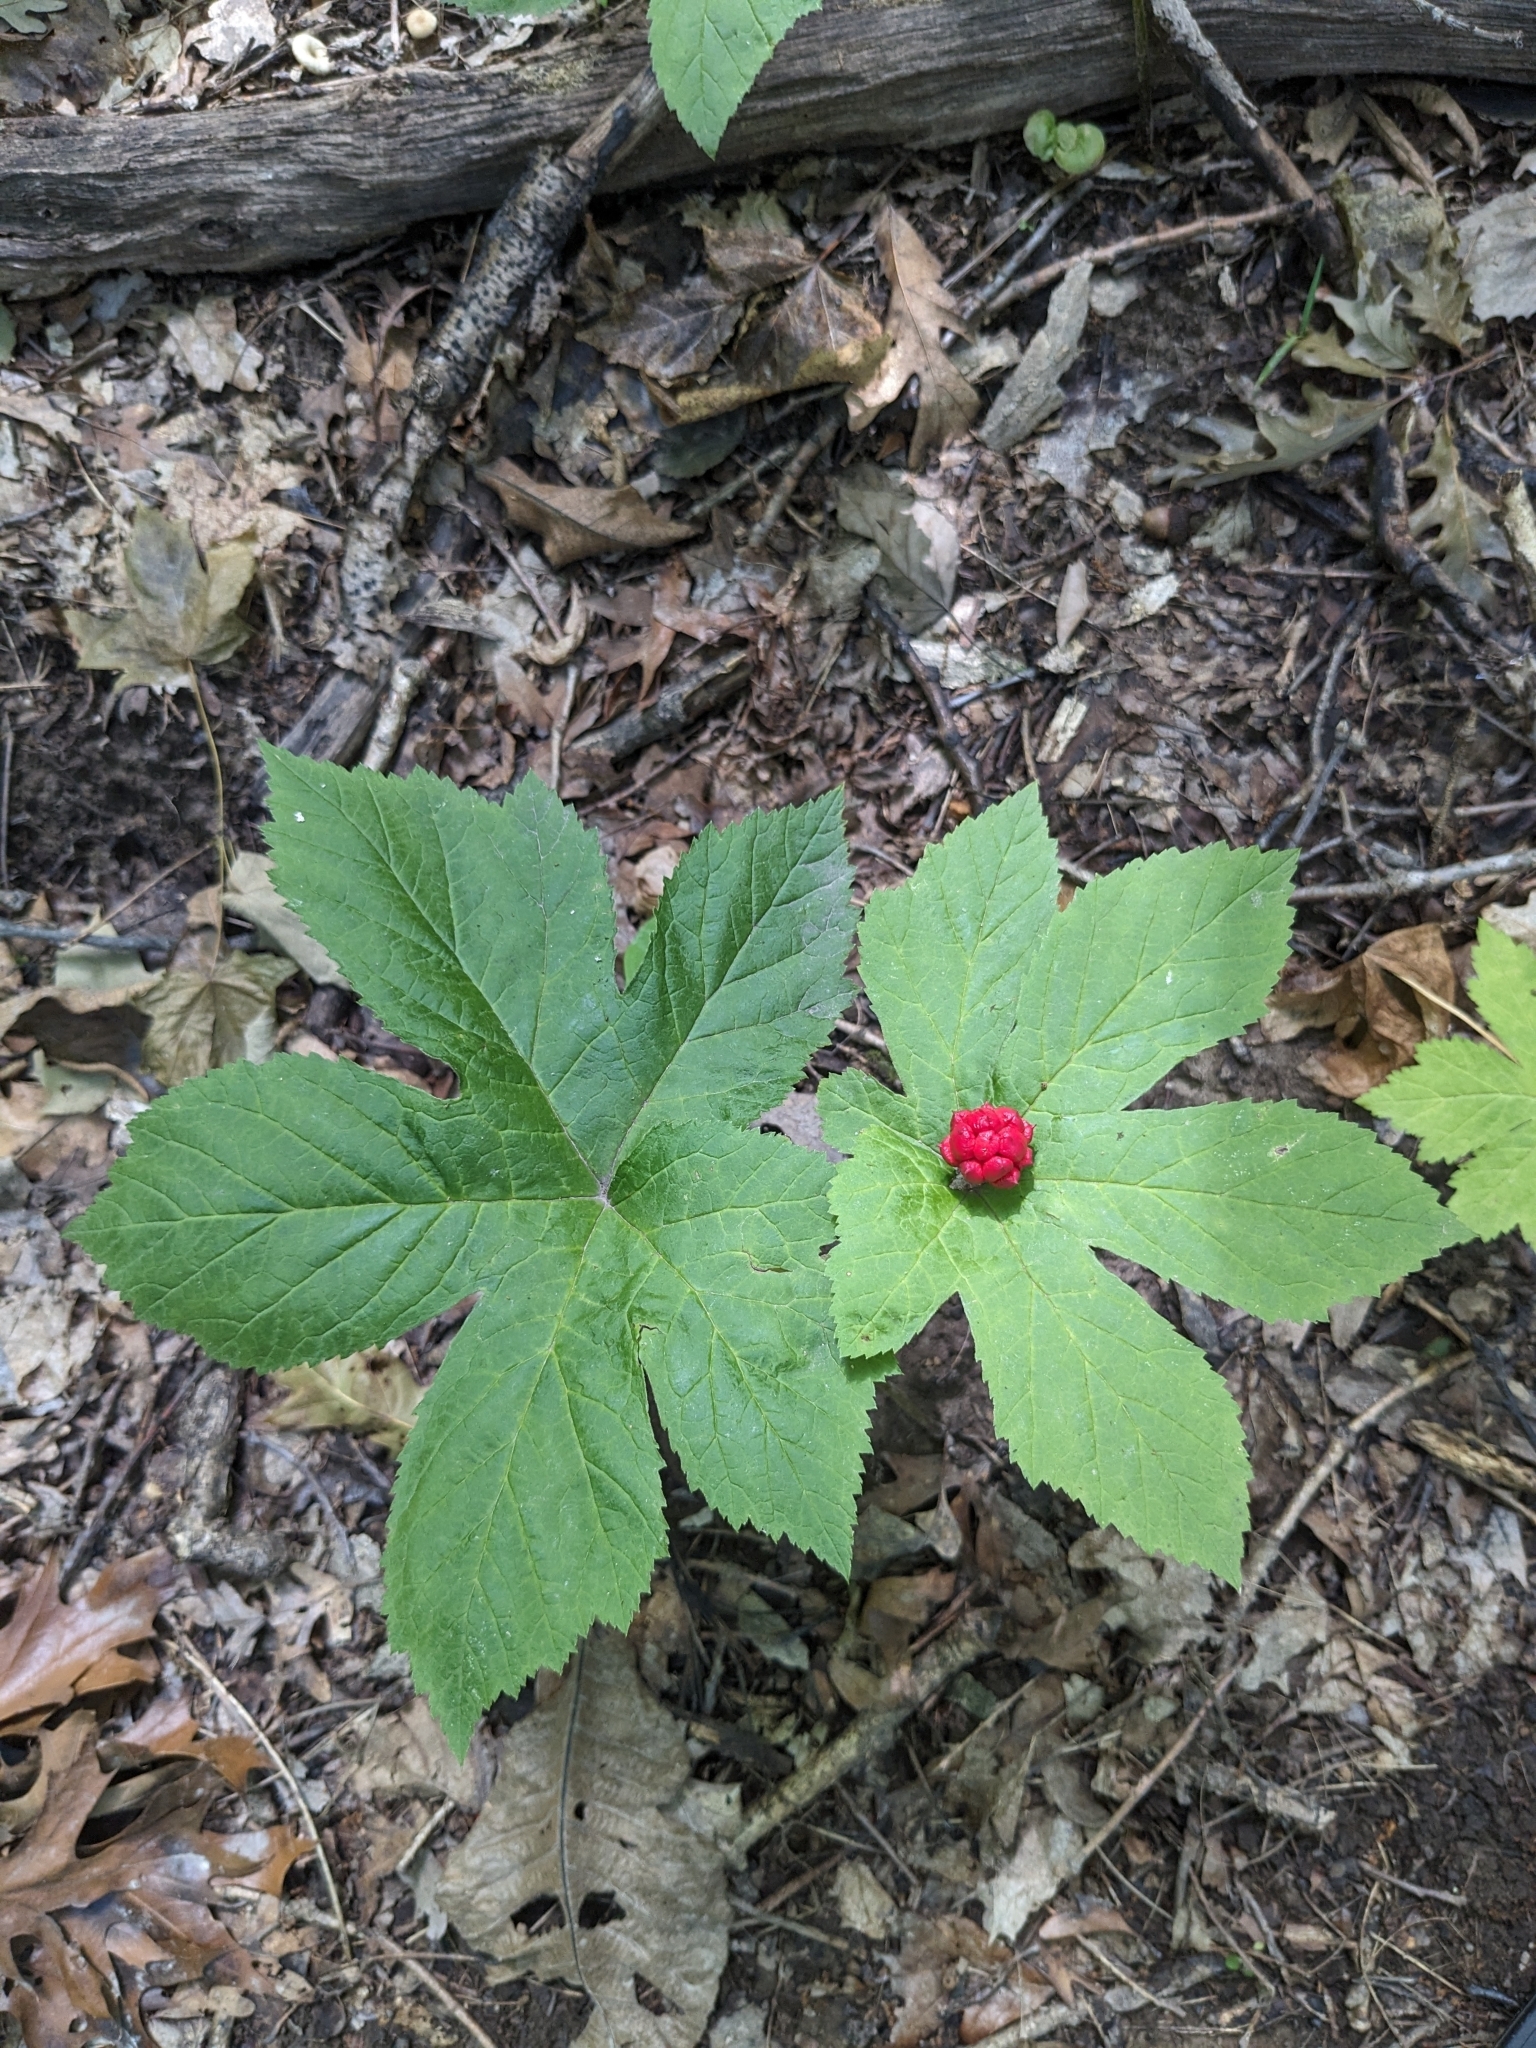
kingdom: Plantae
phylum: Tracheophyta
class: Magnoliopsida
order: Ranunculales
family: Ranunculaceae
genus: Hydrastis
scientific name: Hydrastis canadensis
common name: Goldenseal
